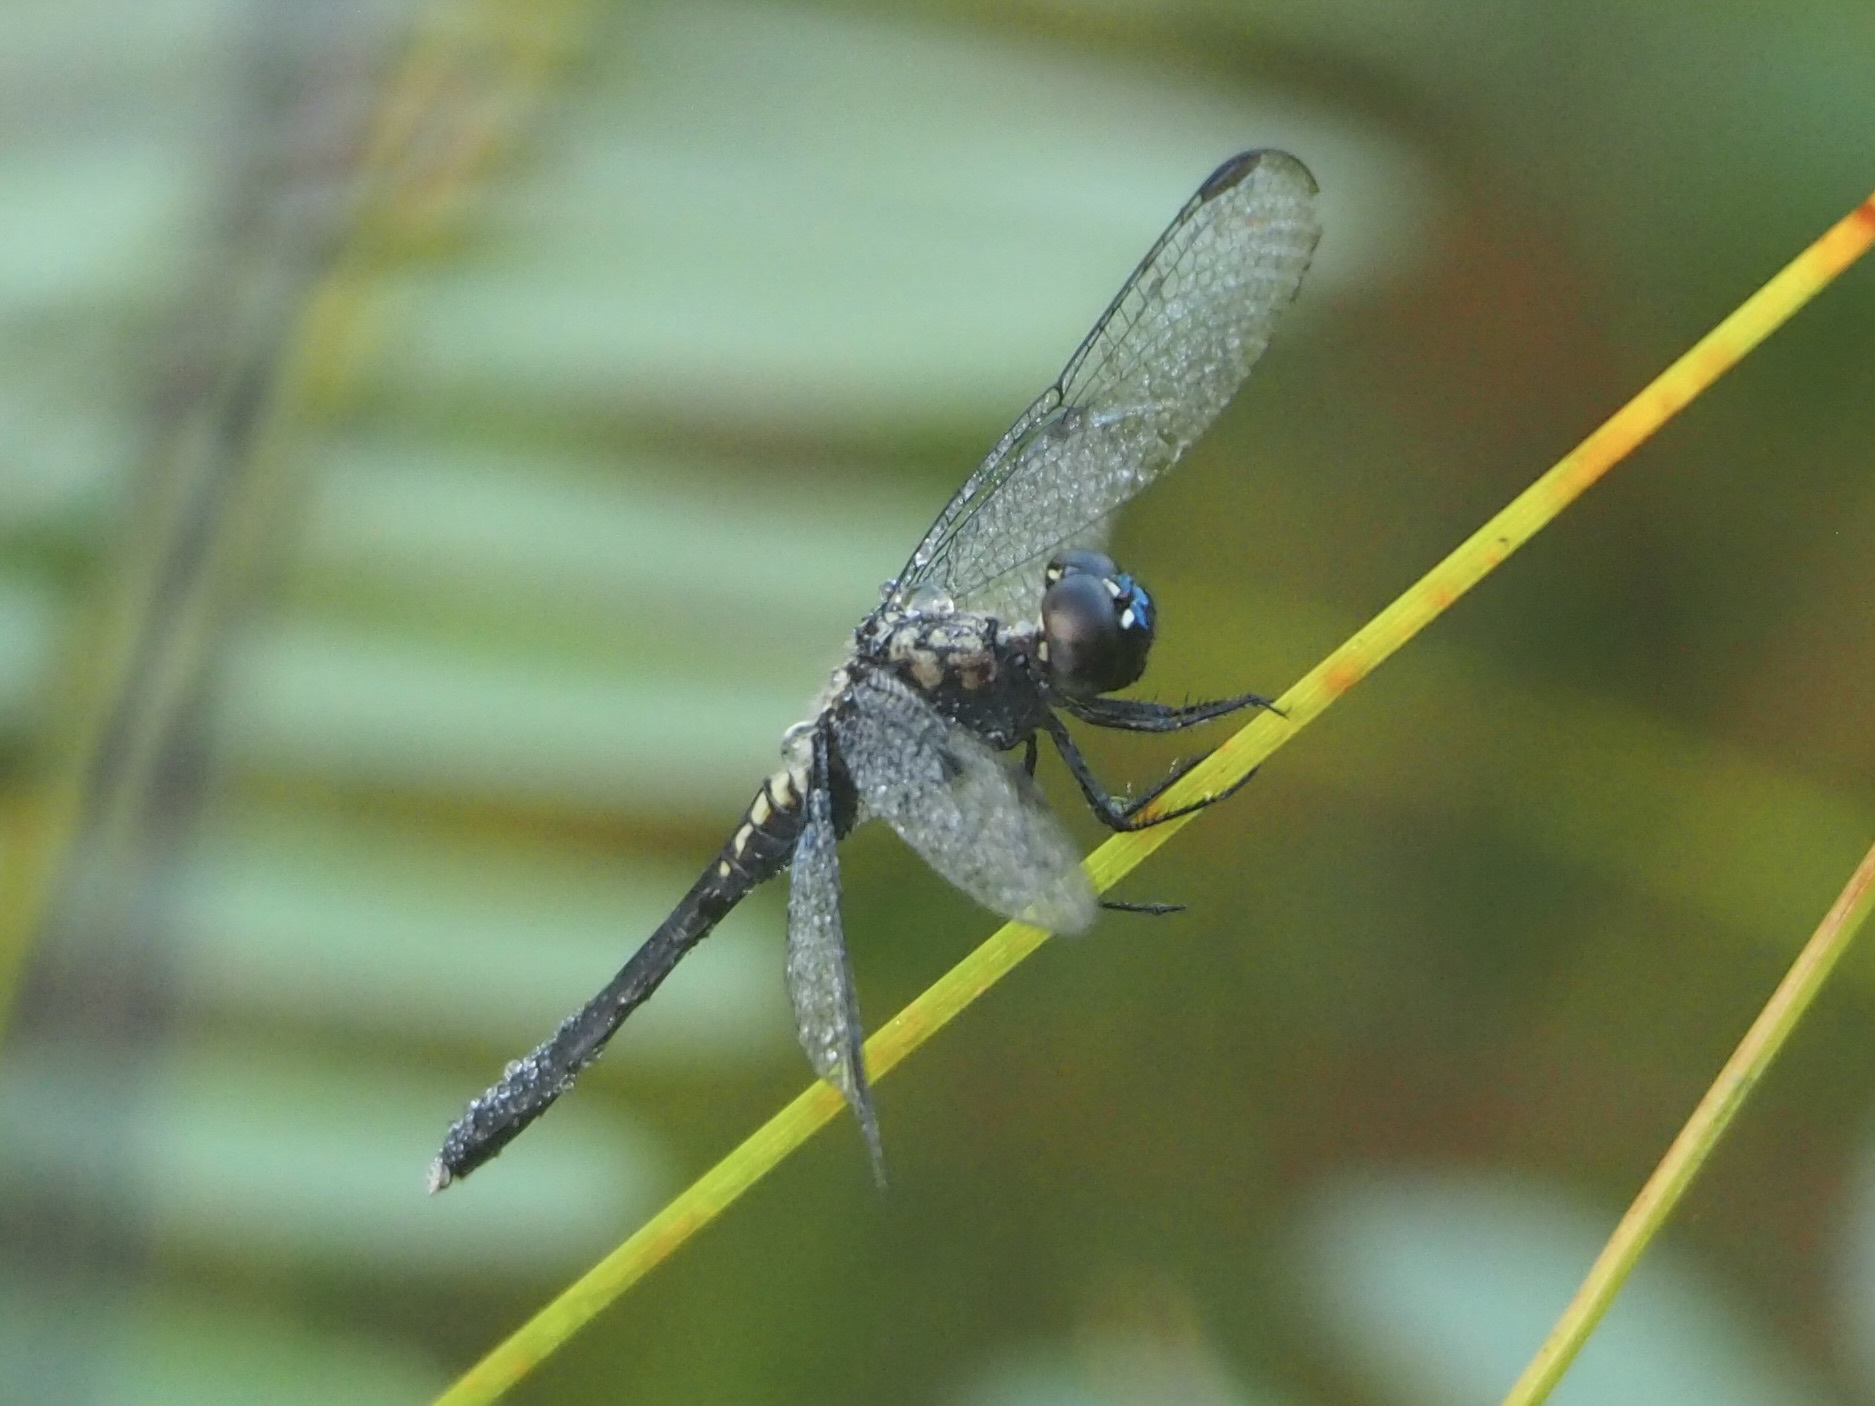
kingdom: Animalia
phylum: Arthropoda
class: Insecta
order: Odonata
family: Libellulidae
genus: Erythrodiplax
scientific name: Erythrodiplax basalis
